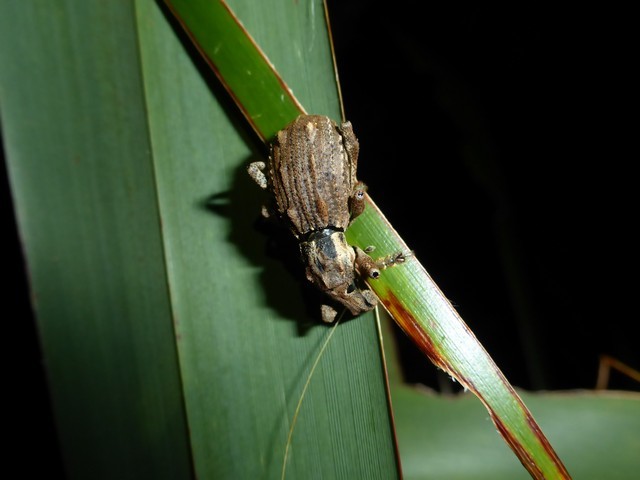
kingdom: Animalia
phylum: Arthropoda
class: Insecta
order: Coleoptera
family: Curculionidae
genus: Anagotus
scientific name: Anagotus fairburni
